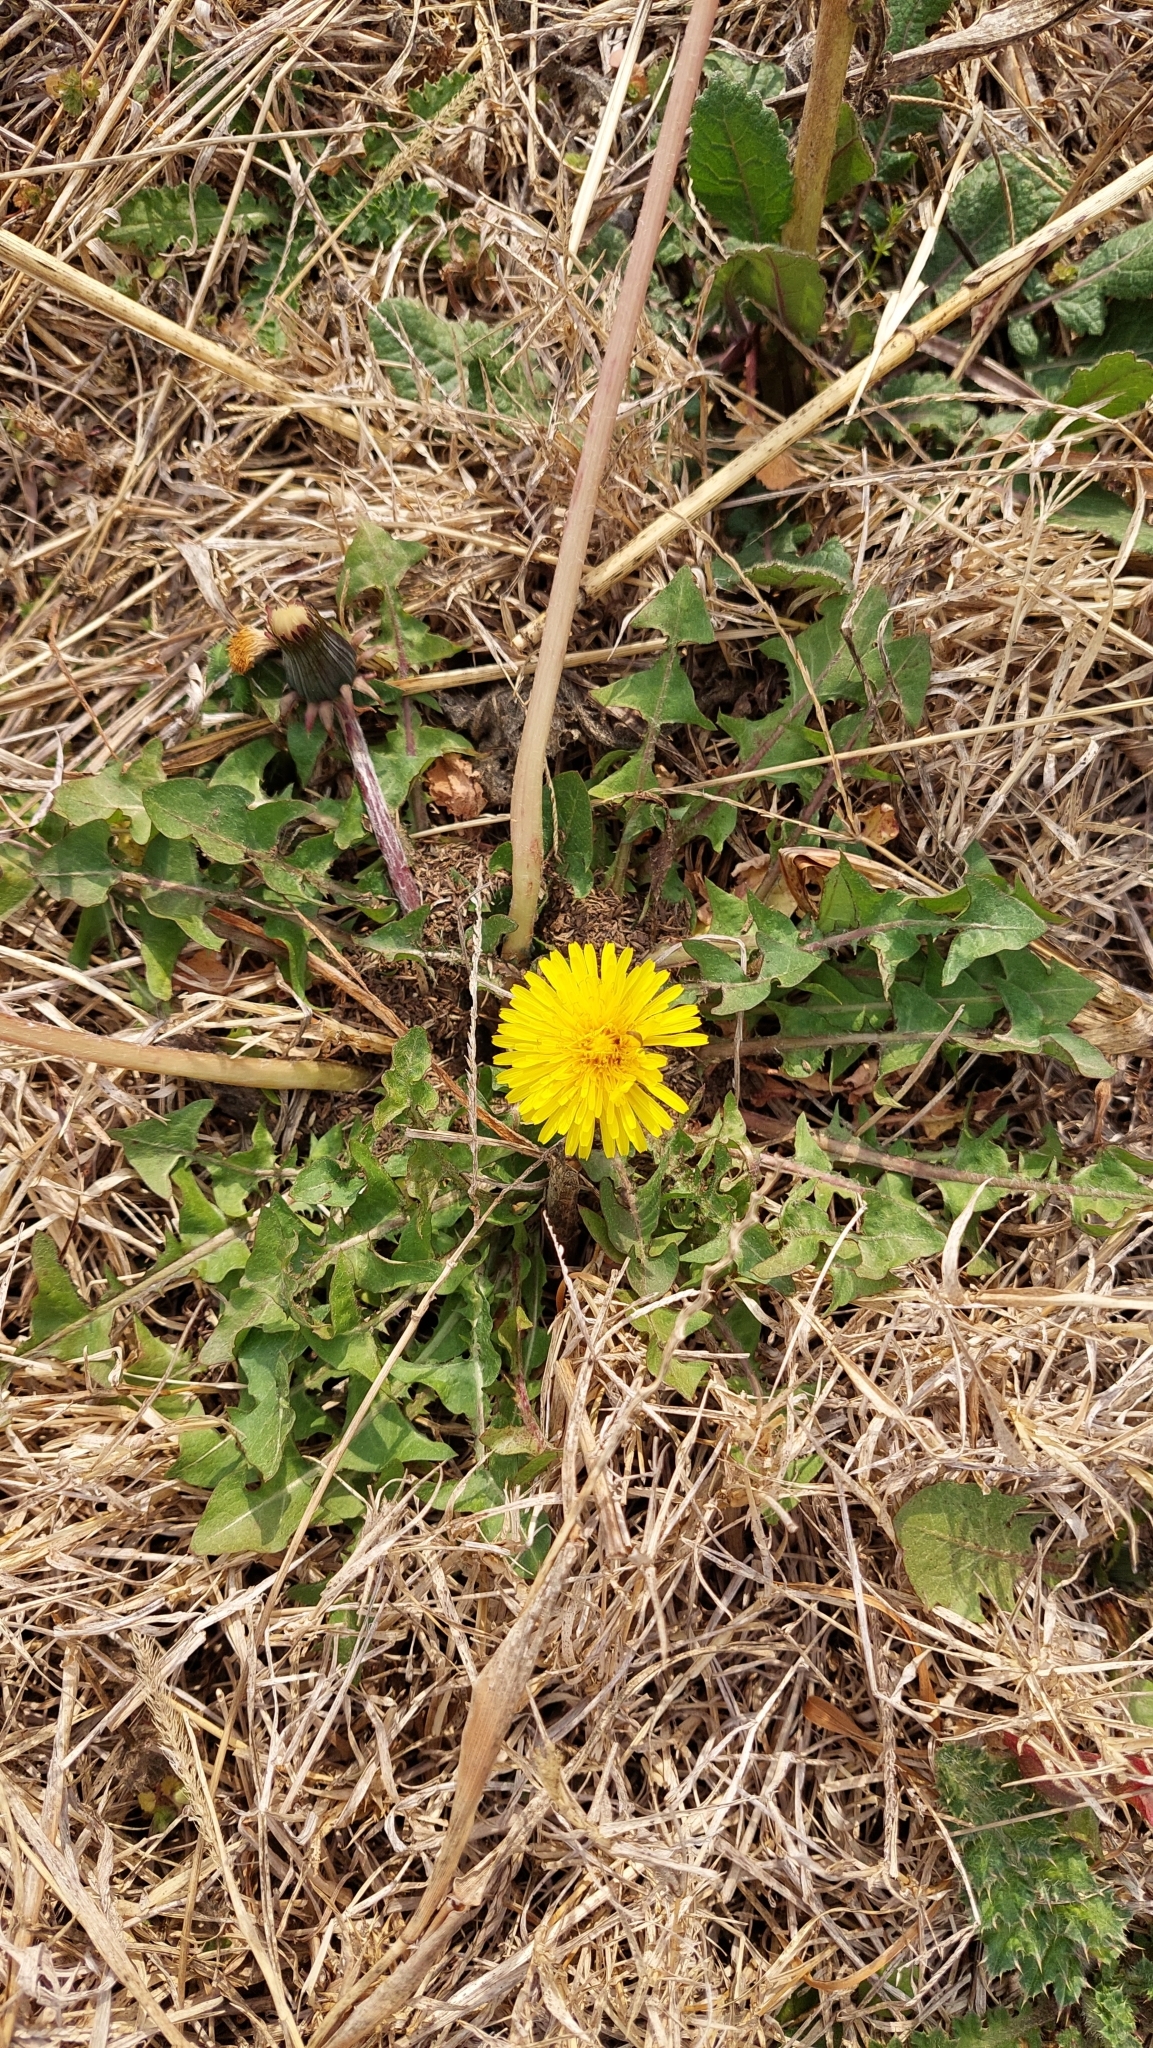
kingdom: Plantae
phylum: Tracheophyta
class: Magnoliopsida
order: Asterales
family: Asteraceae
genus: Taraxacum
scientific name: Taraxacum officinale
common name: Common dandelion
